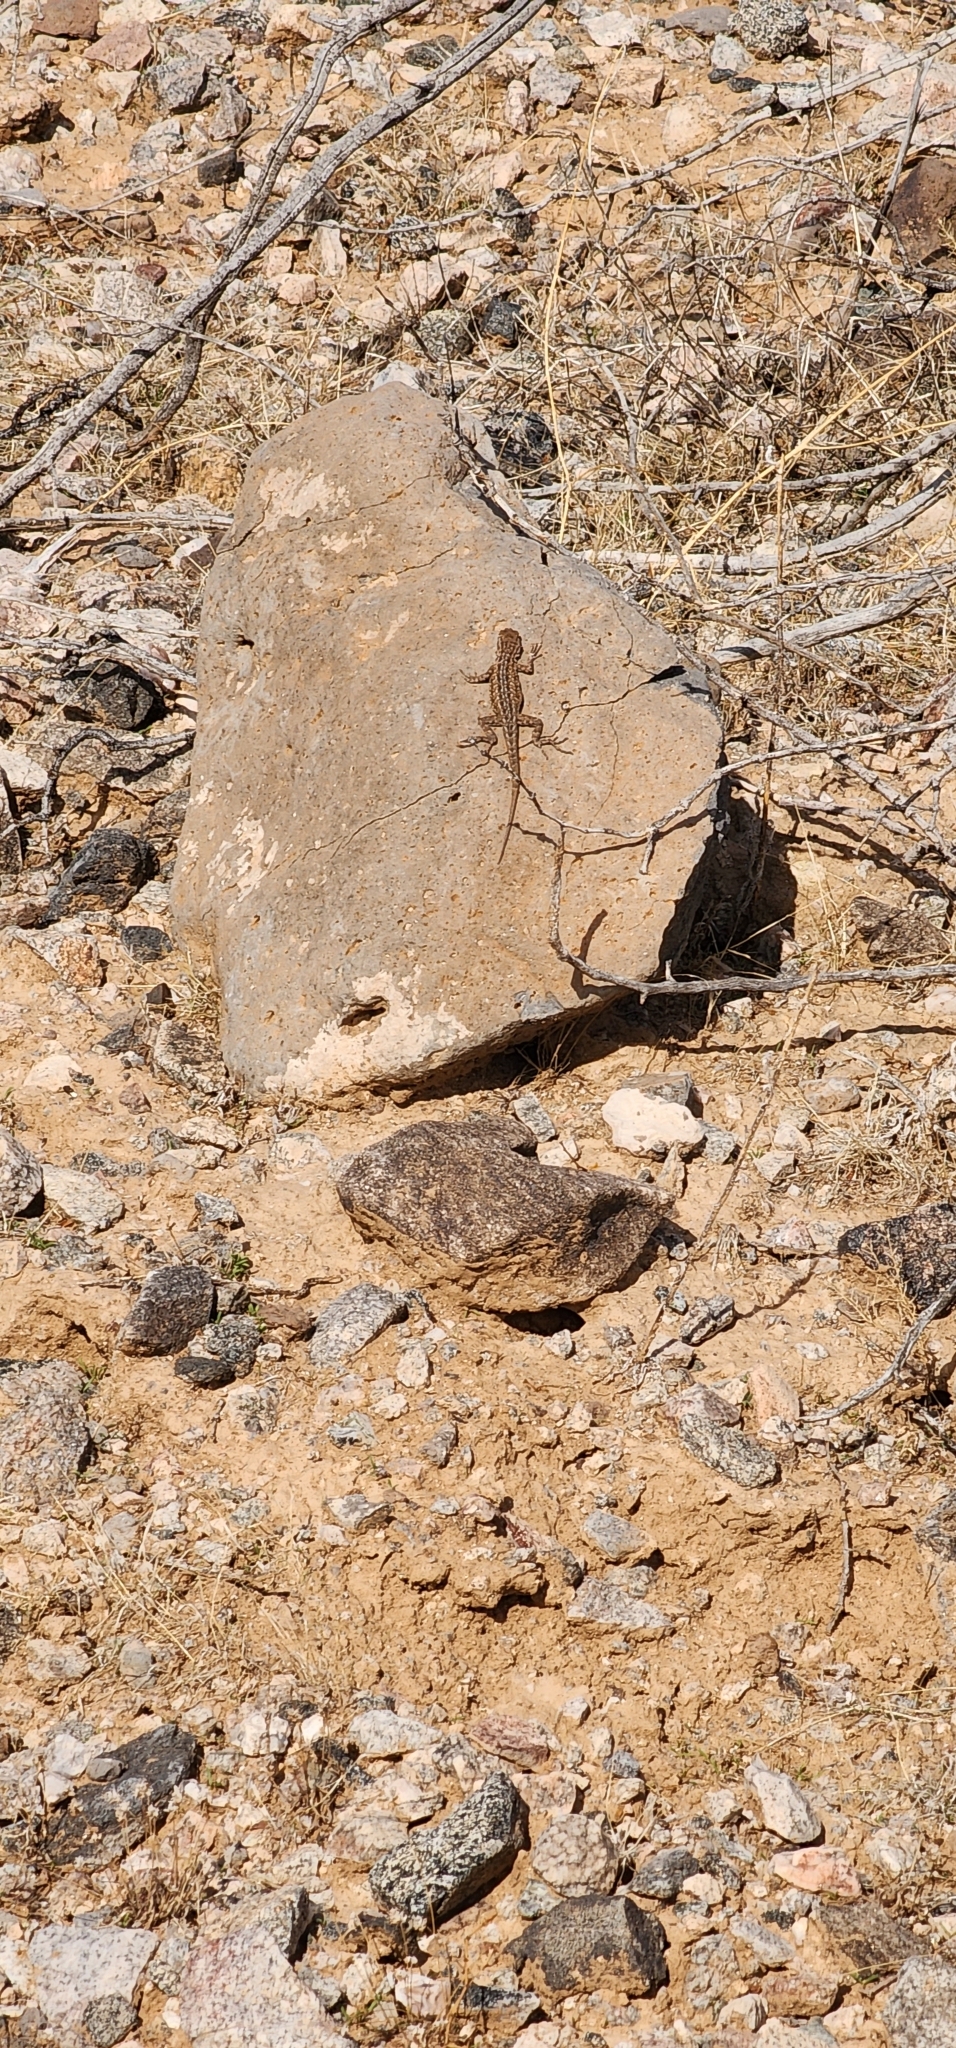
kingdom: Animalia
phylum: Chordata
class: Squamata
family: Phrynosomatidae
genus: Uta
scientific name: Uta stansburiana
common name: Side-blotched lizard
